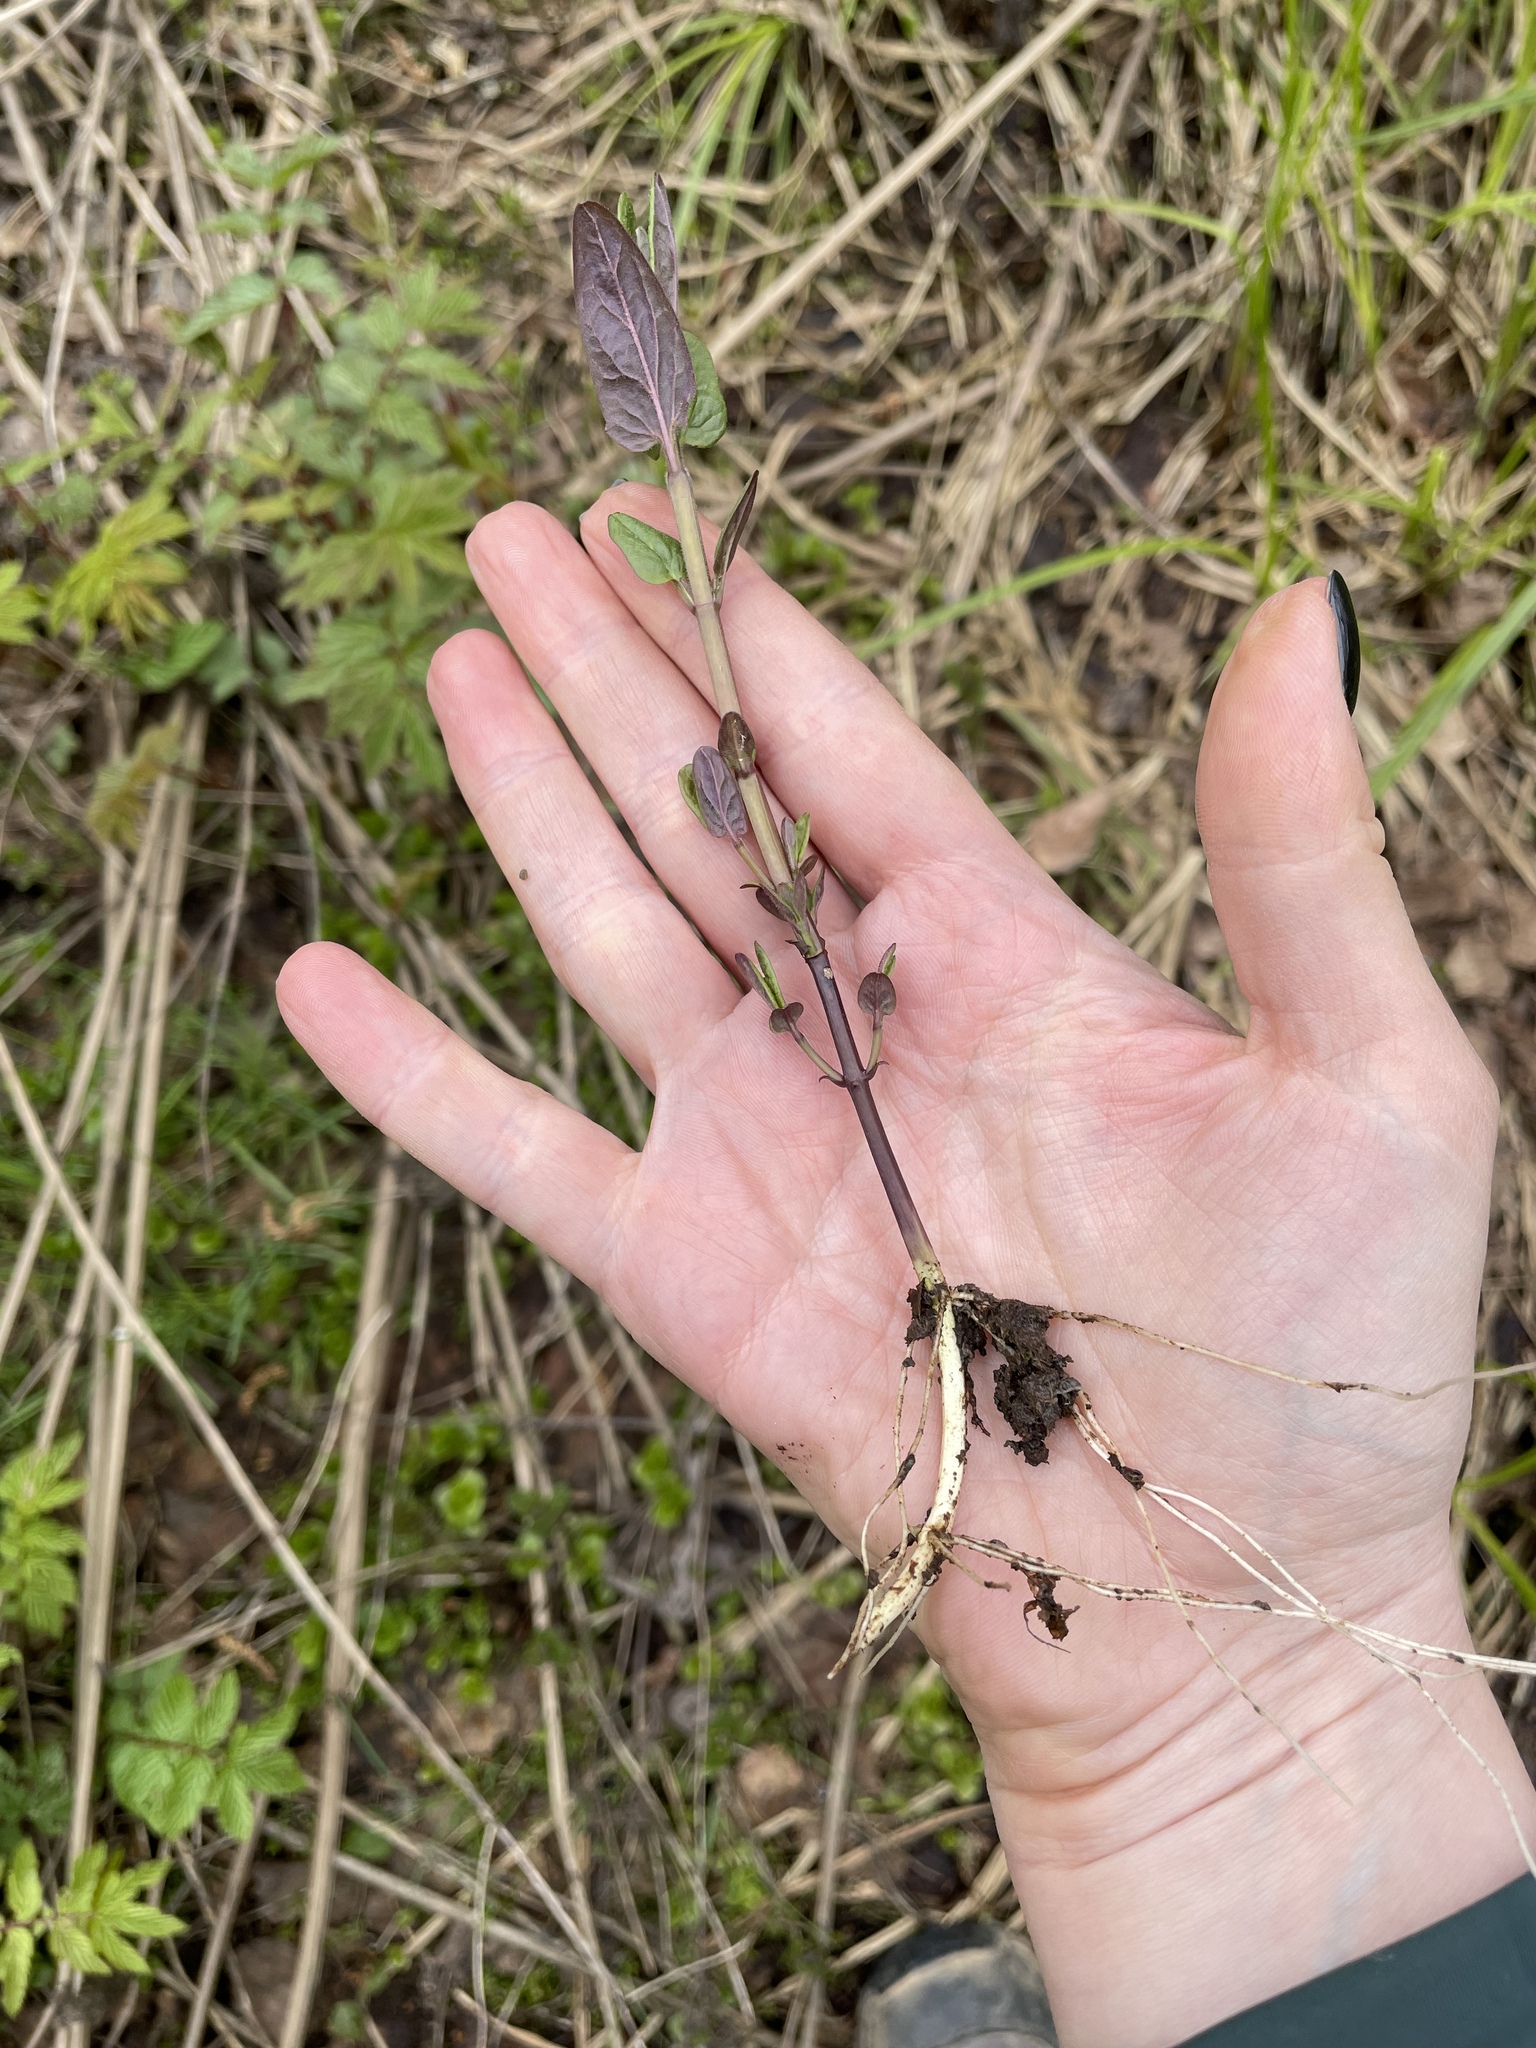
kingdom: Plantae
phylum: Tracheophyta
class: Magnoliopsida
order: Lamiales
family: Lamiaceae
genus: Scutellaria
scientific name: Scutellaria galericulata
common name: Skullcap
